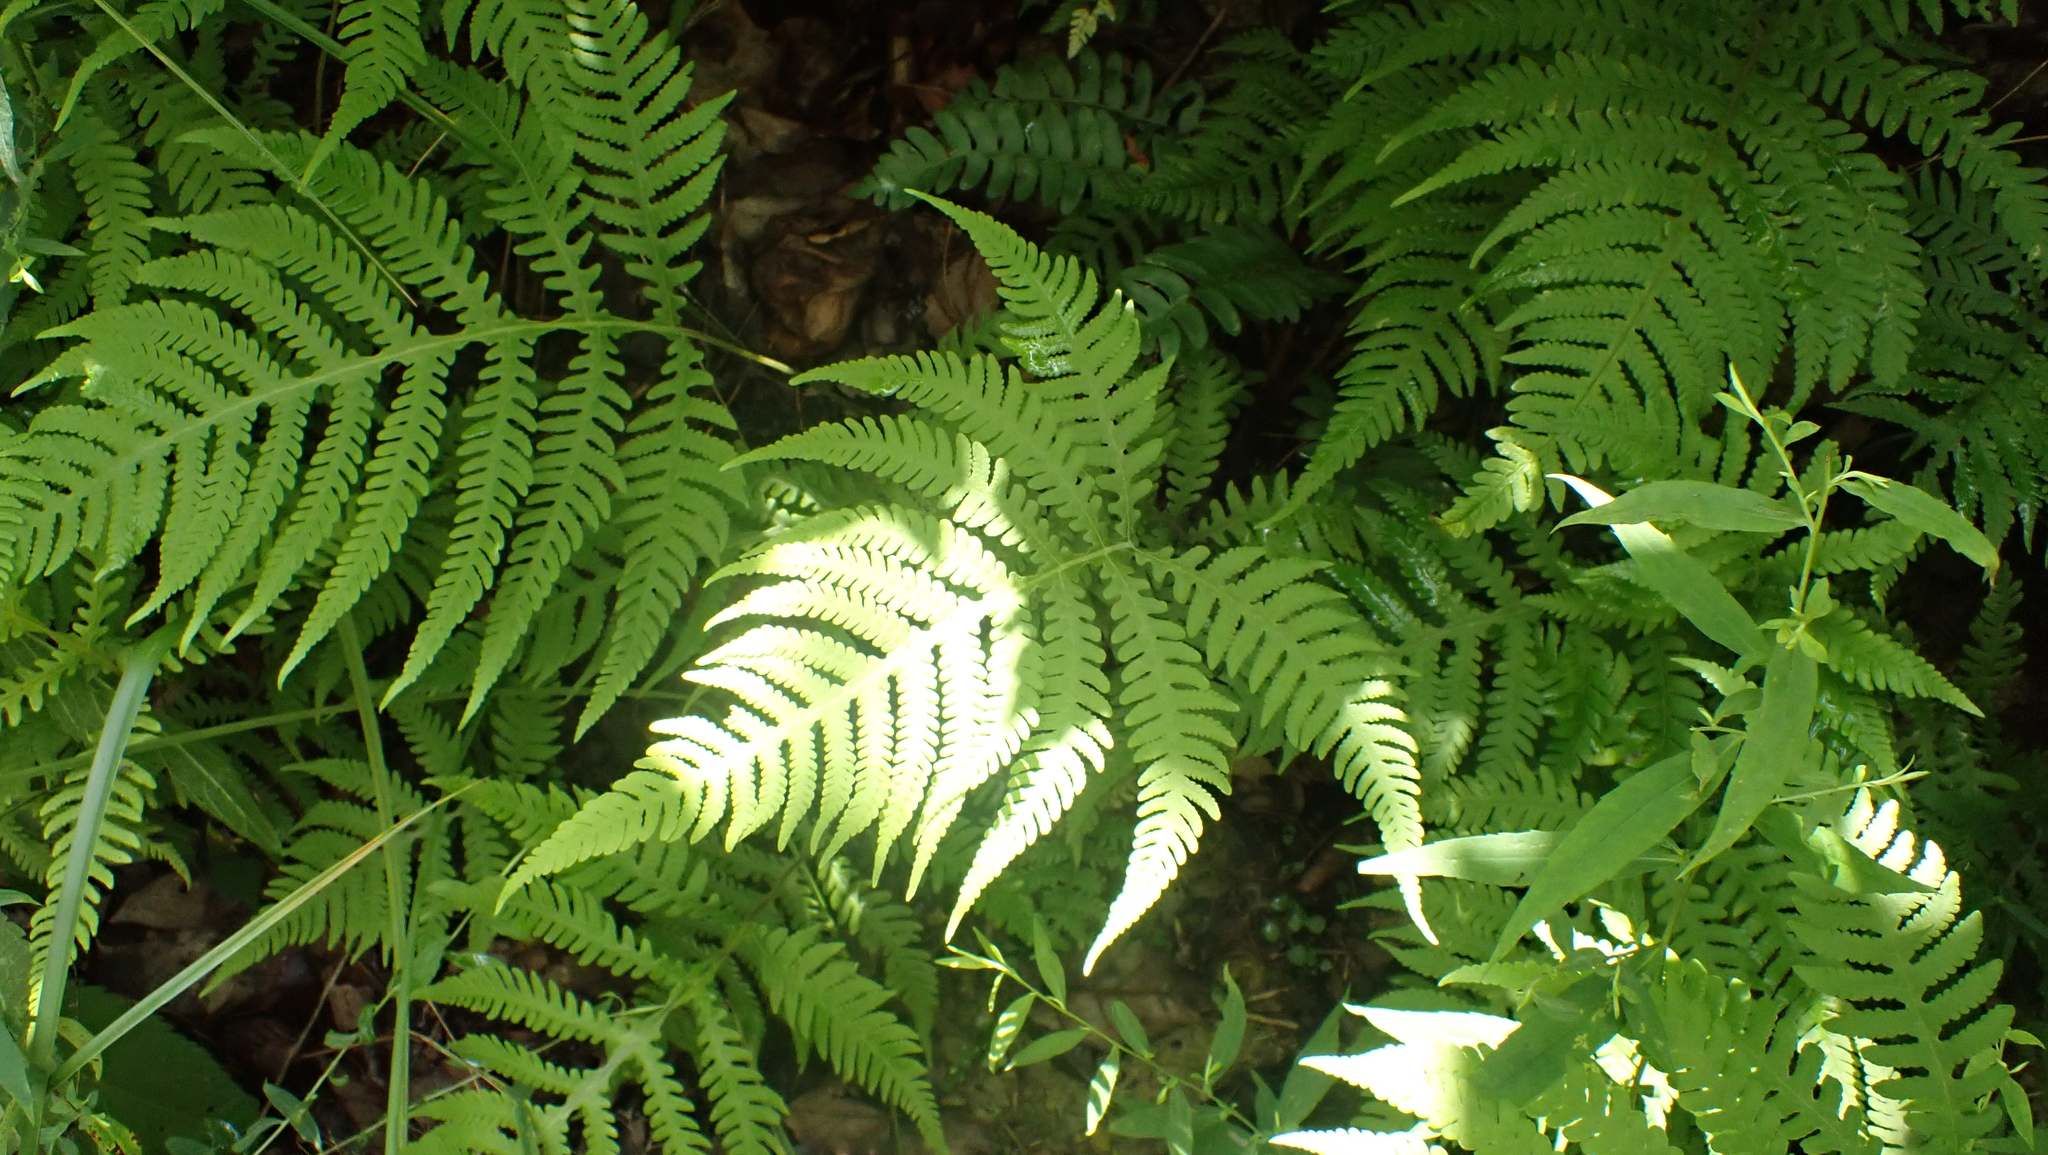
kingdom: Plantae
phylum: Tracheophyta
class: Polypodiopsida
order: Polypodiales
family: Thelypteridaceae
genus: Phegopteris
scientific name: Phegopteris hexagonoptera
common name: Broad beech fern
